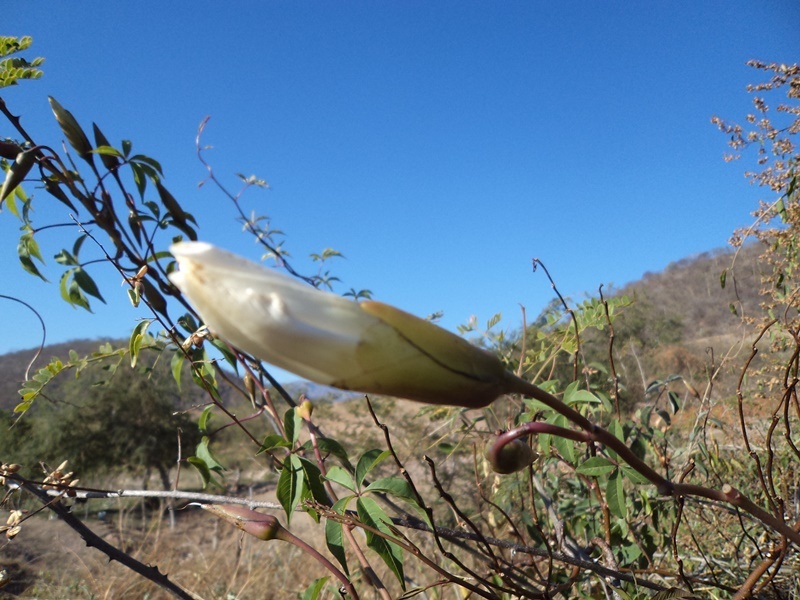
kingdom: Plantae
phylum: Tracheophyta
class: Magnoliopsida
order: Solanales
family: Convolvulaceae
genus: Operculina
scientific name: Operculina platyphylla
